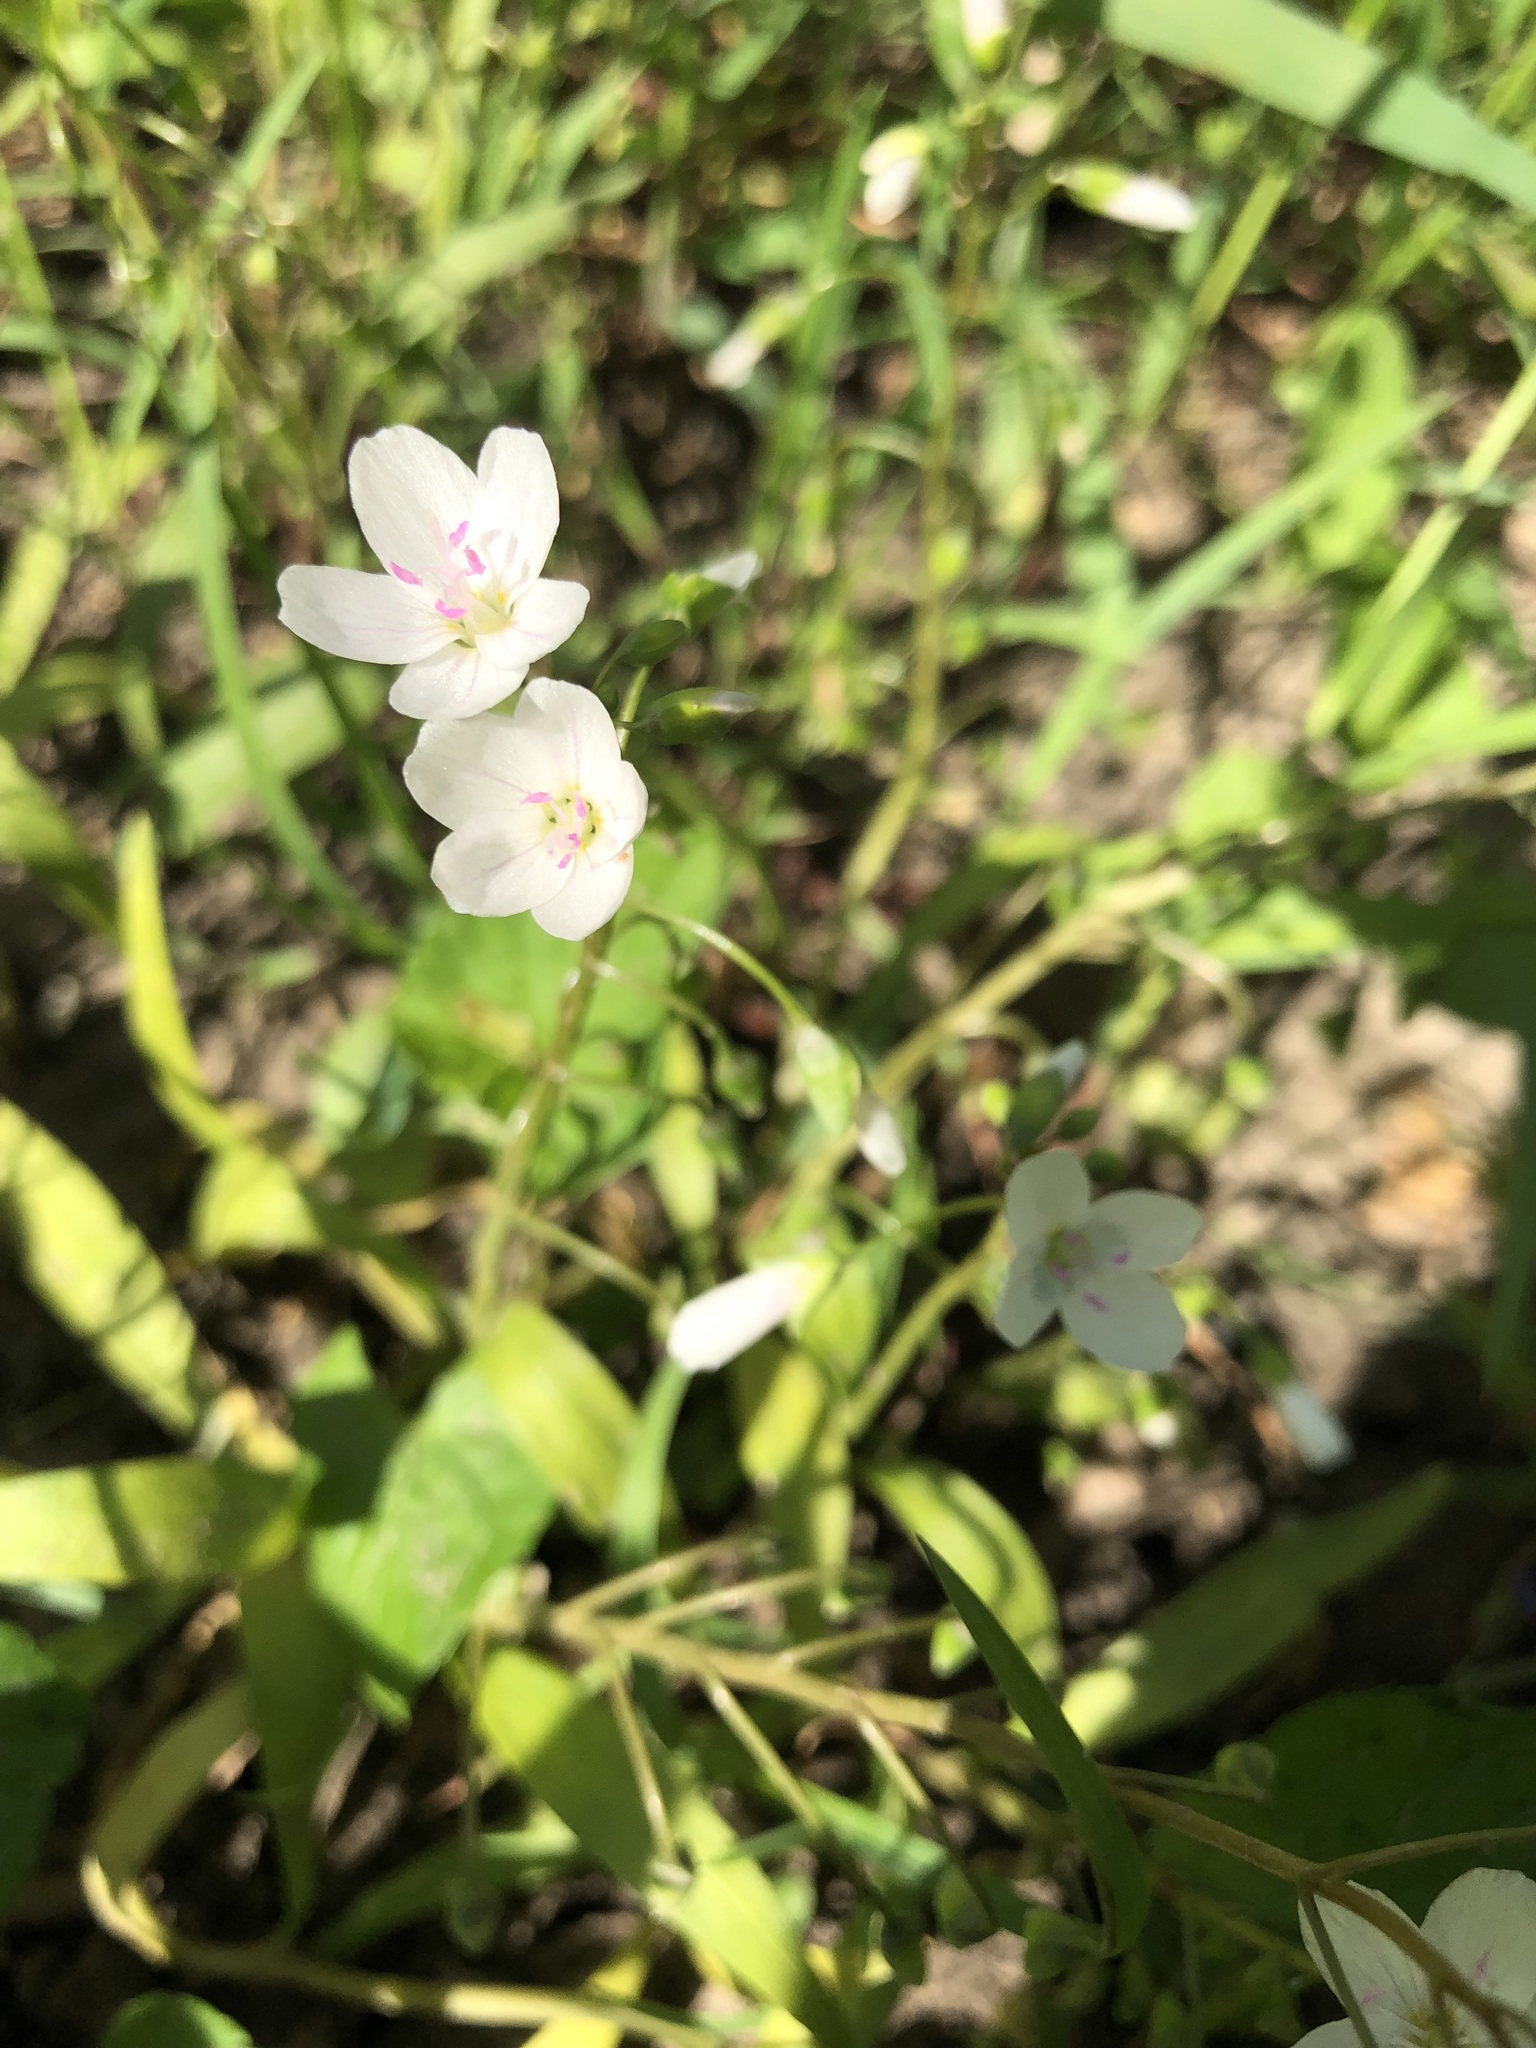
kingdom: Plantae
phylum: Tracheophyta
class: Magnoliopsida
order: Caryophyllales
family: Montiaceae
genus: Claytonia
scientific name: Claytonia virginica
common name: Virginia springbeauty
